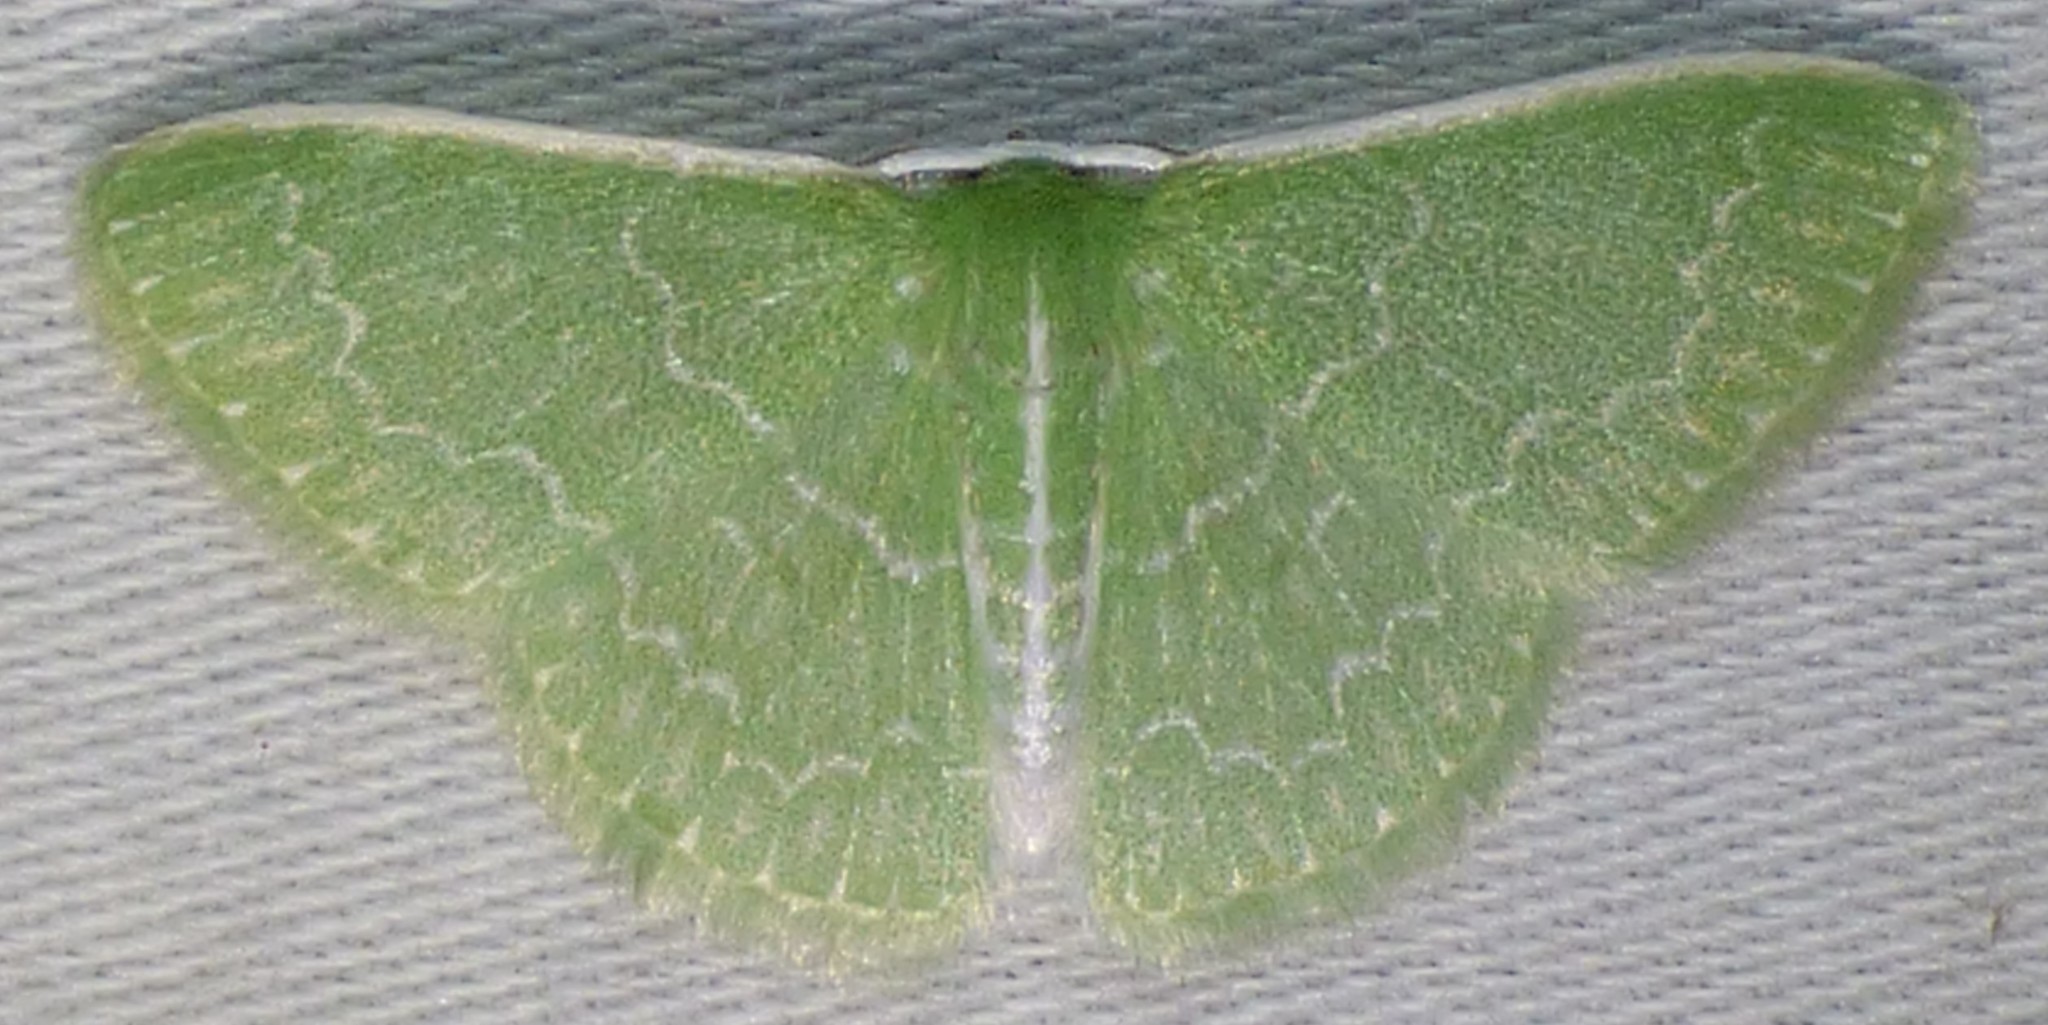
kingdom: Animalia
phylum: Arthropoda
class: Insecta
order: Lepidoptera
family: Geometridae
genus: Synchlora
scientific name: Synchlora frondaria
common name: Southern emerald
